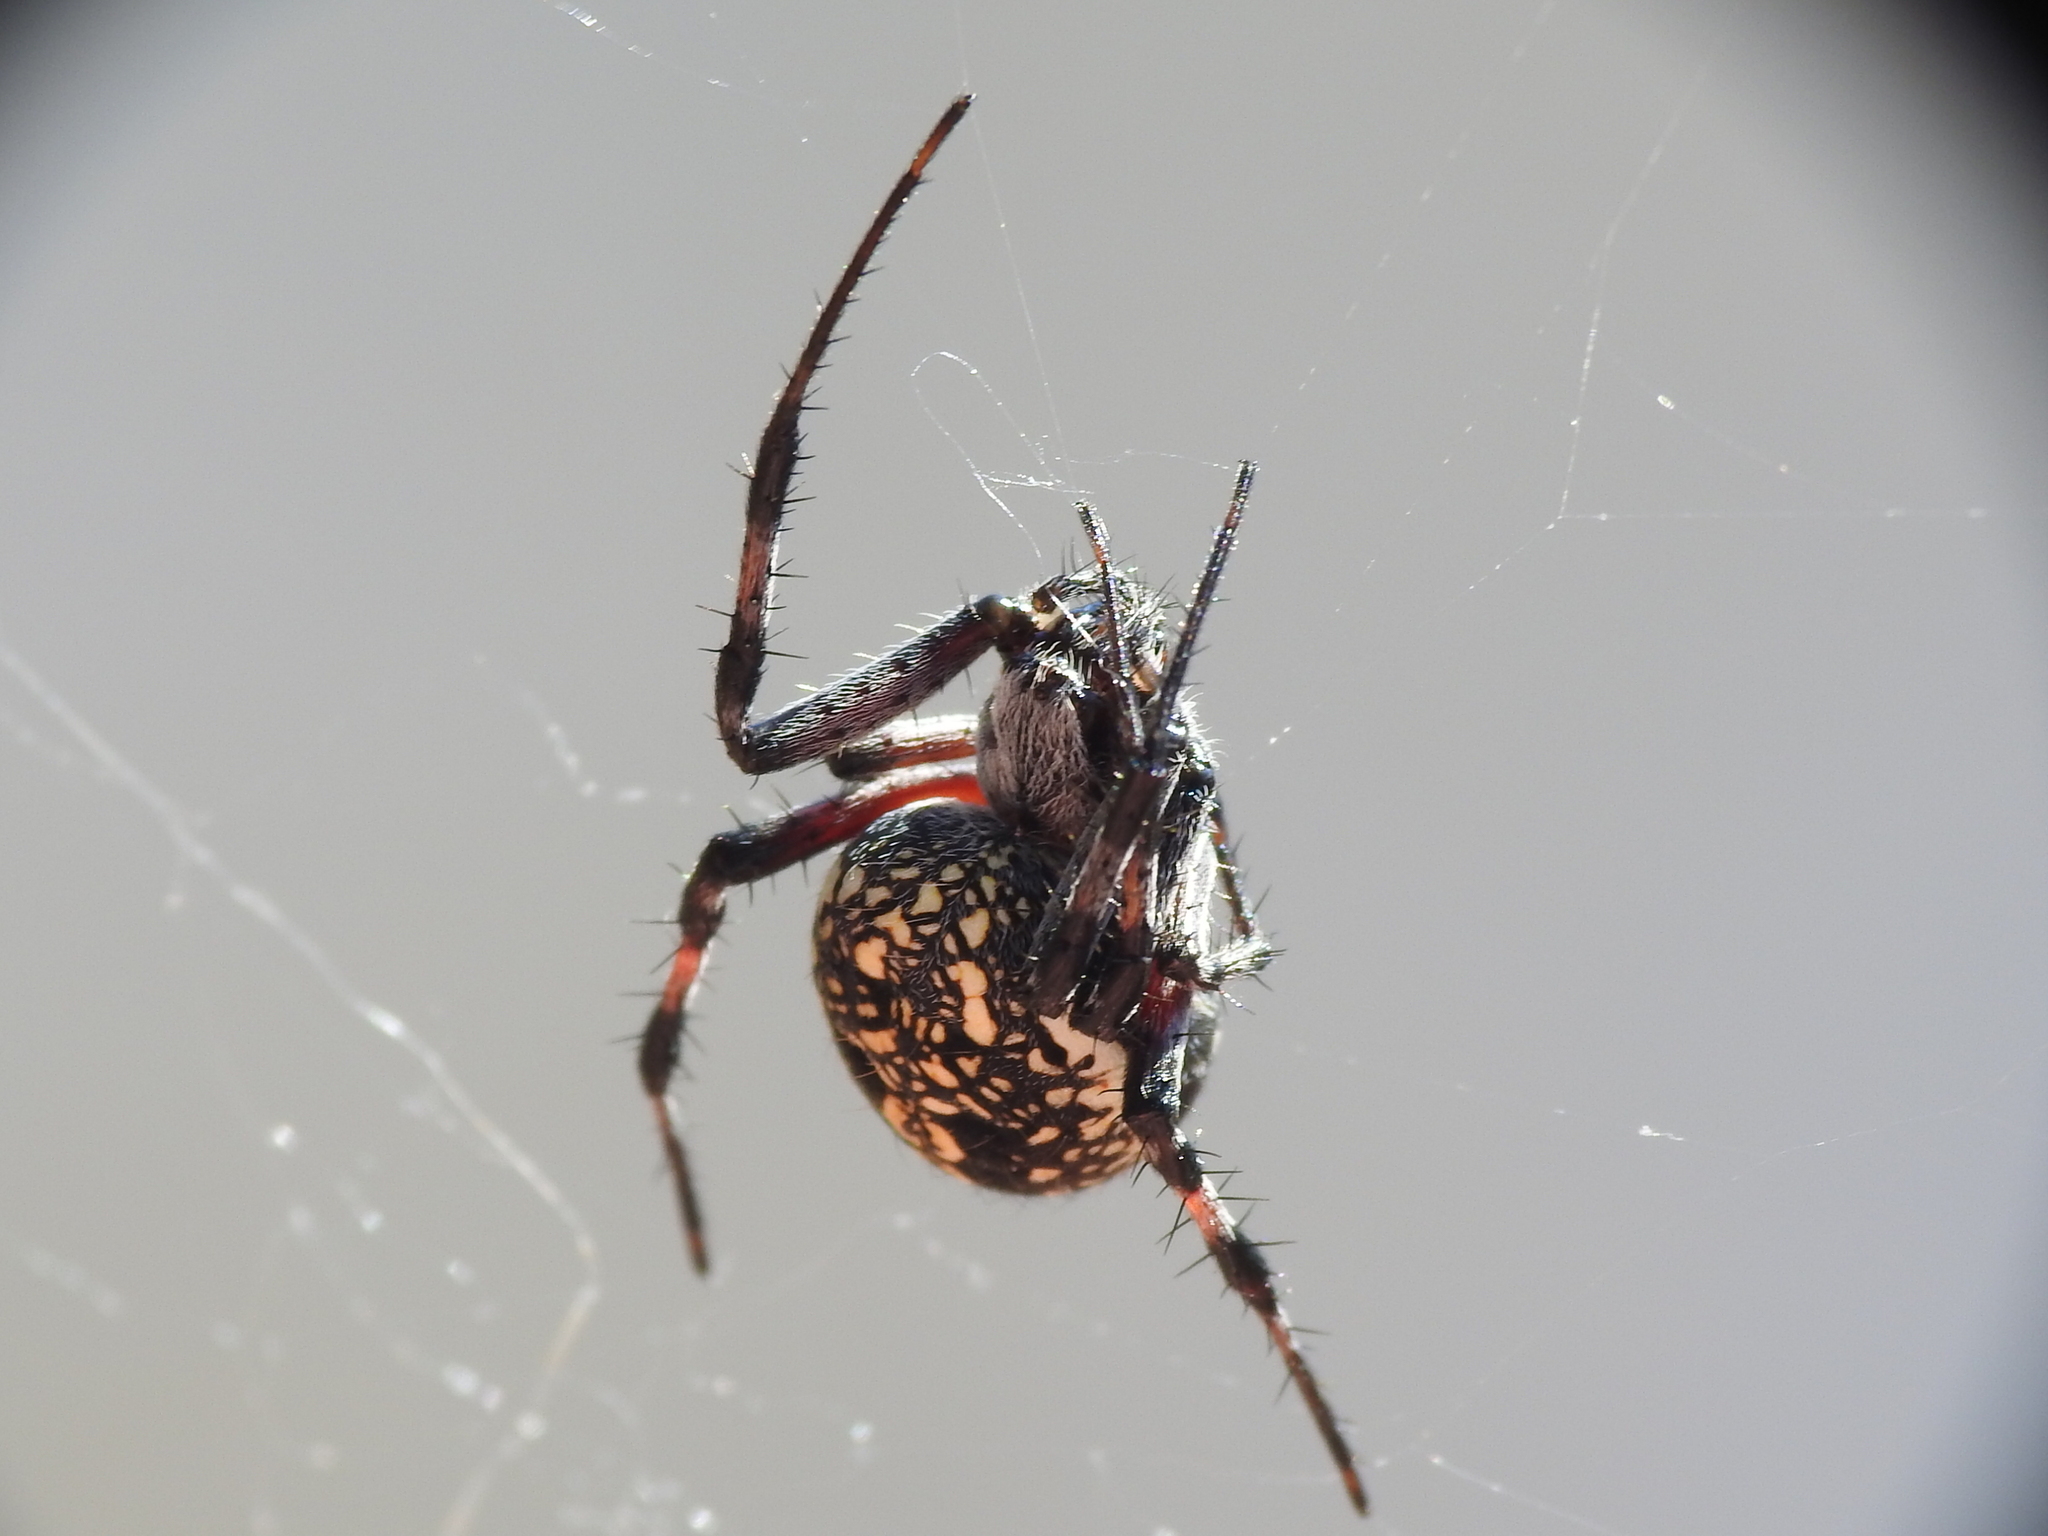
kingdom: Animalia
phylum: Arthropoda
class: Arachnida
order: Araneae
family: Araneidae
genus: Neoscona
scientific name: Neoscona oaxacensis
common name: Orb weavers
